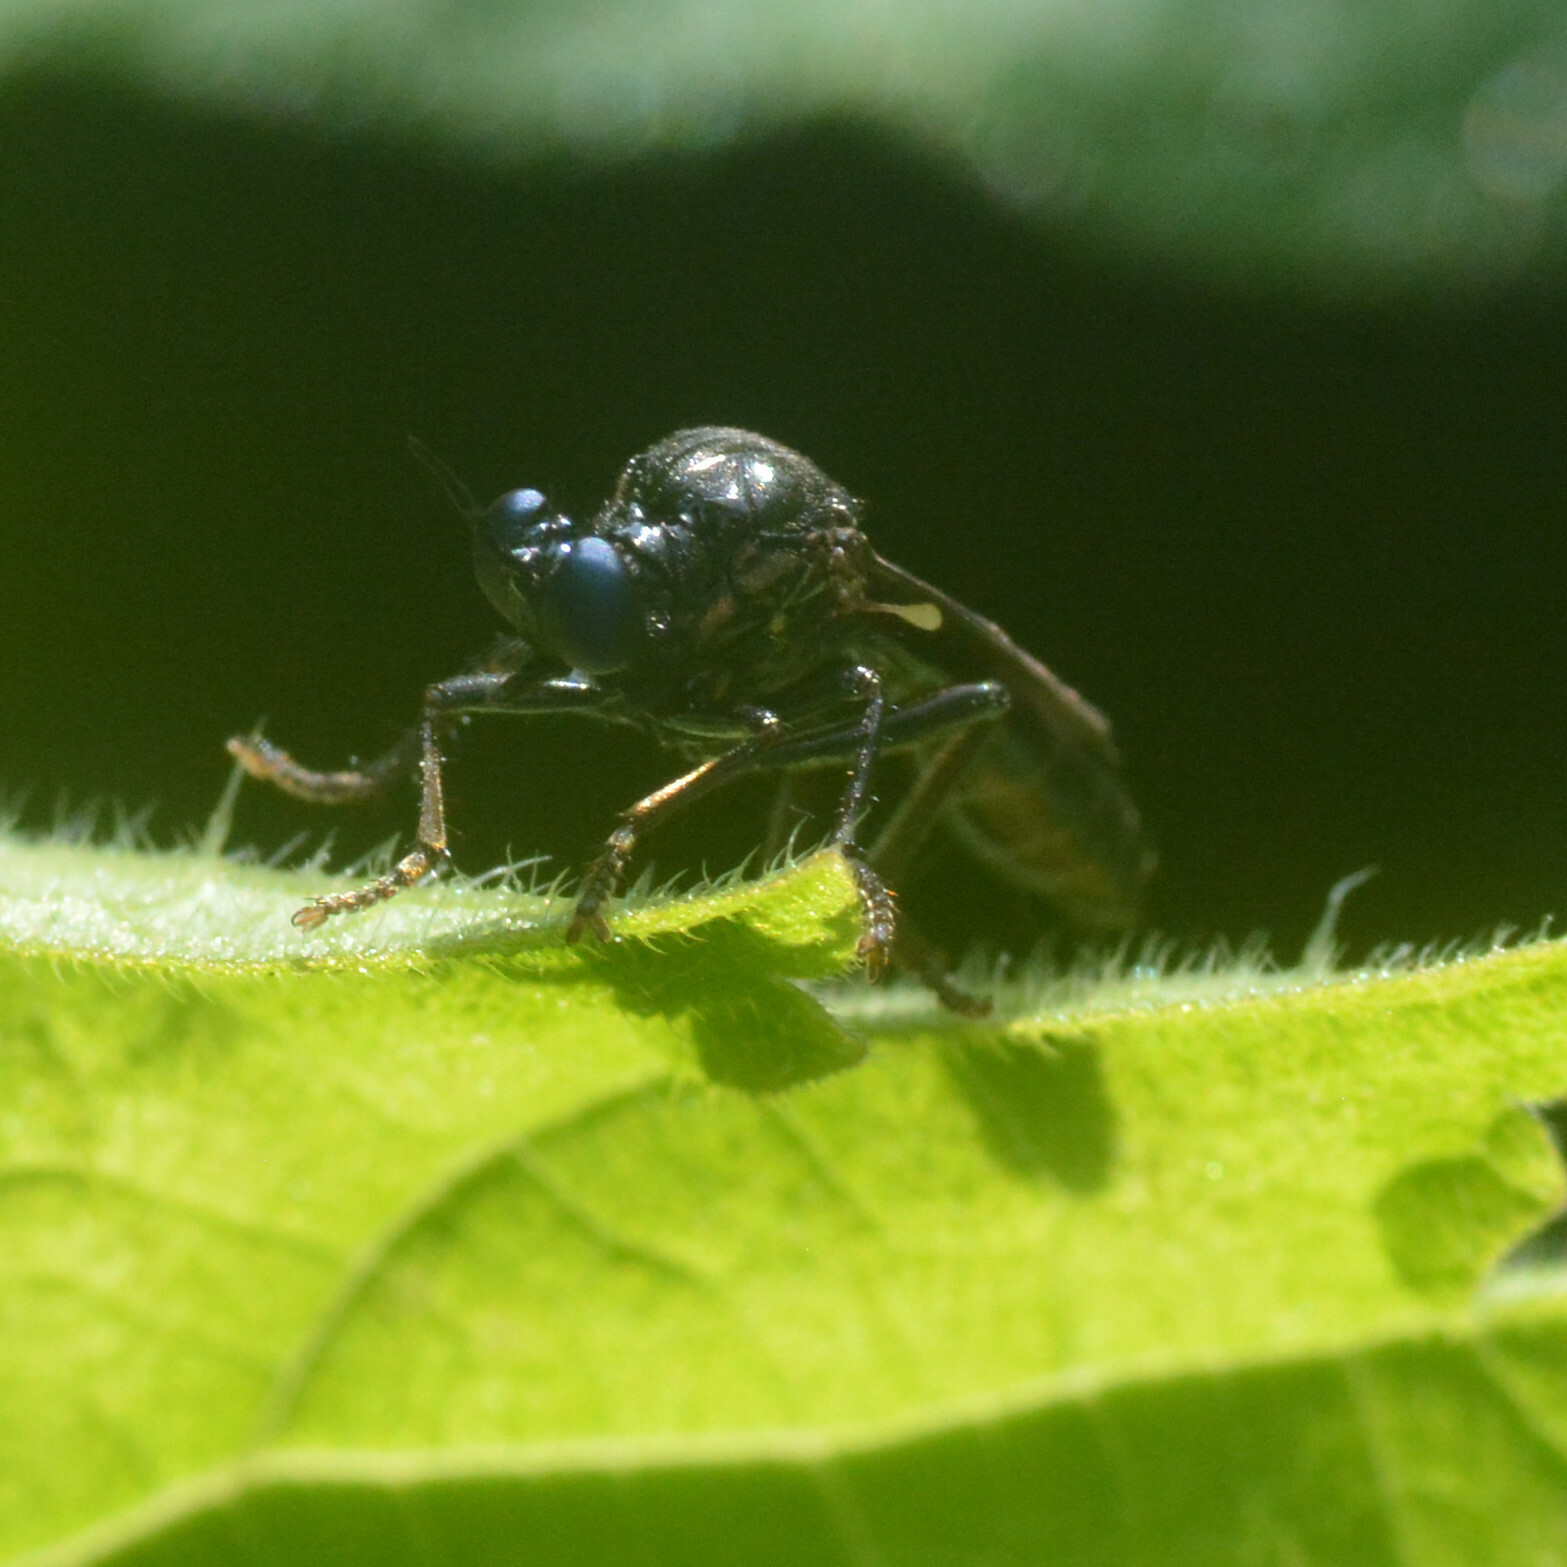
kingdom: Animalia
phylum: Arthropoda
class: Insecta
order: Diptera
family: Asilidae
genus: Dioctria
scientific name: Dioctria atricapilla
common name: Violet black-legged
